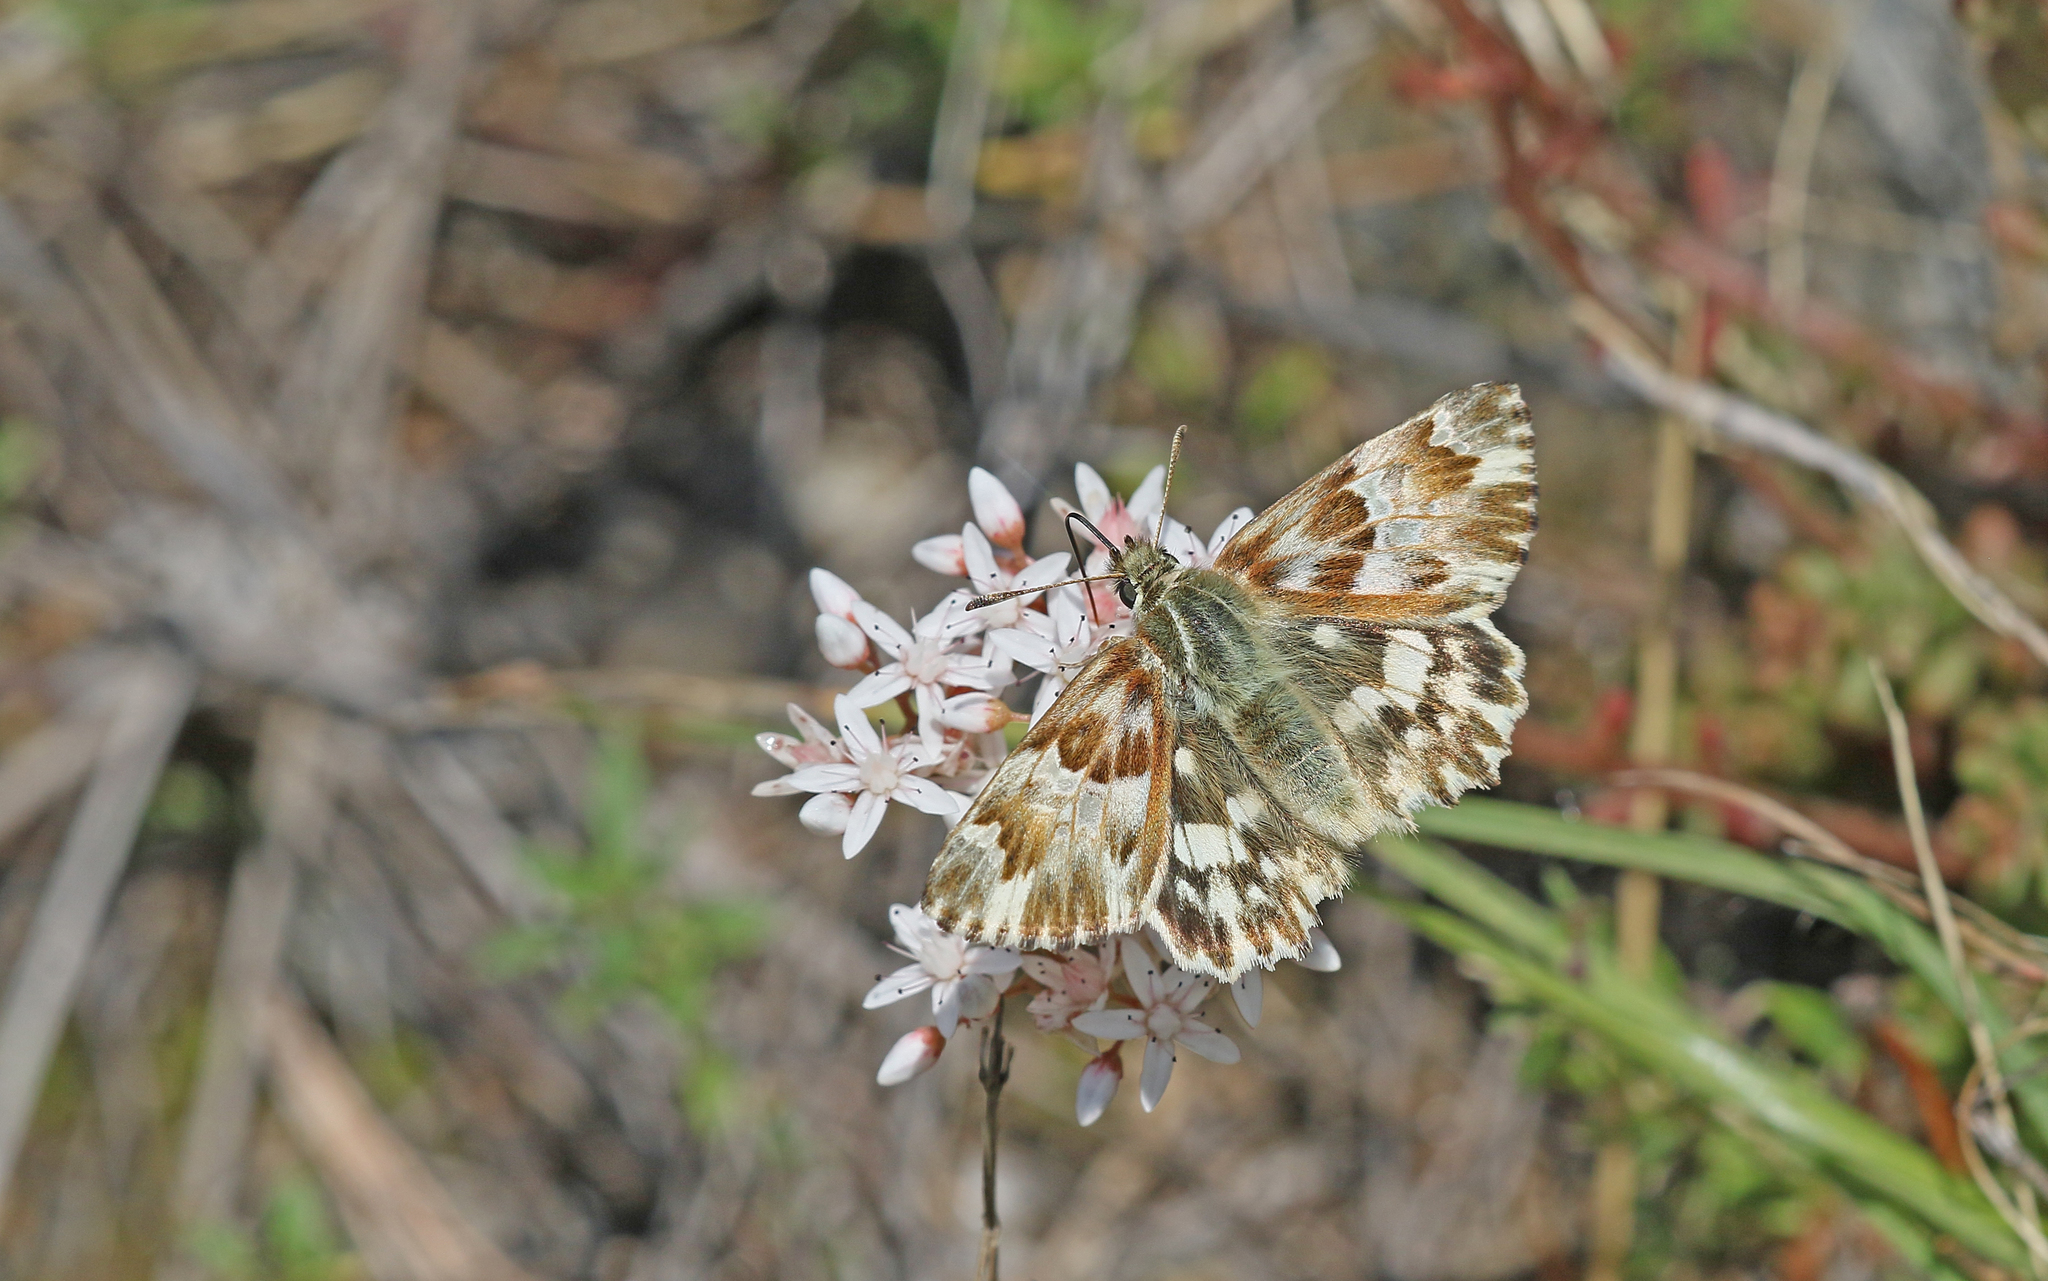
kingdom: Animalia
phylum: Arthropoda
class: Insecta
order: Lepidoptera
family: Hesperiidae
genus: Carcharodus
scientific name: Carcharodus lavatherae
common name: Marbled skipper
